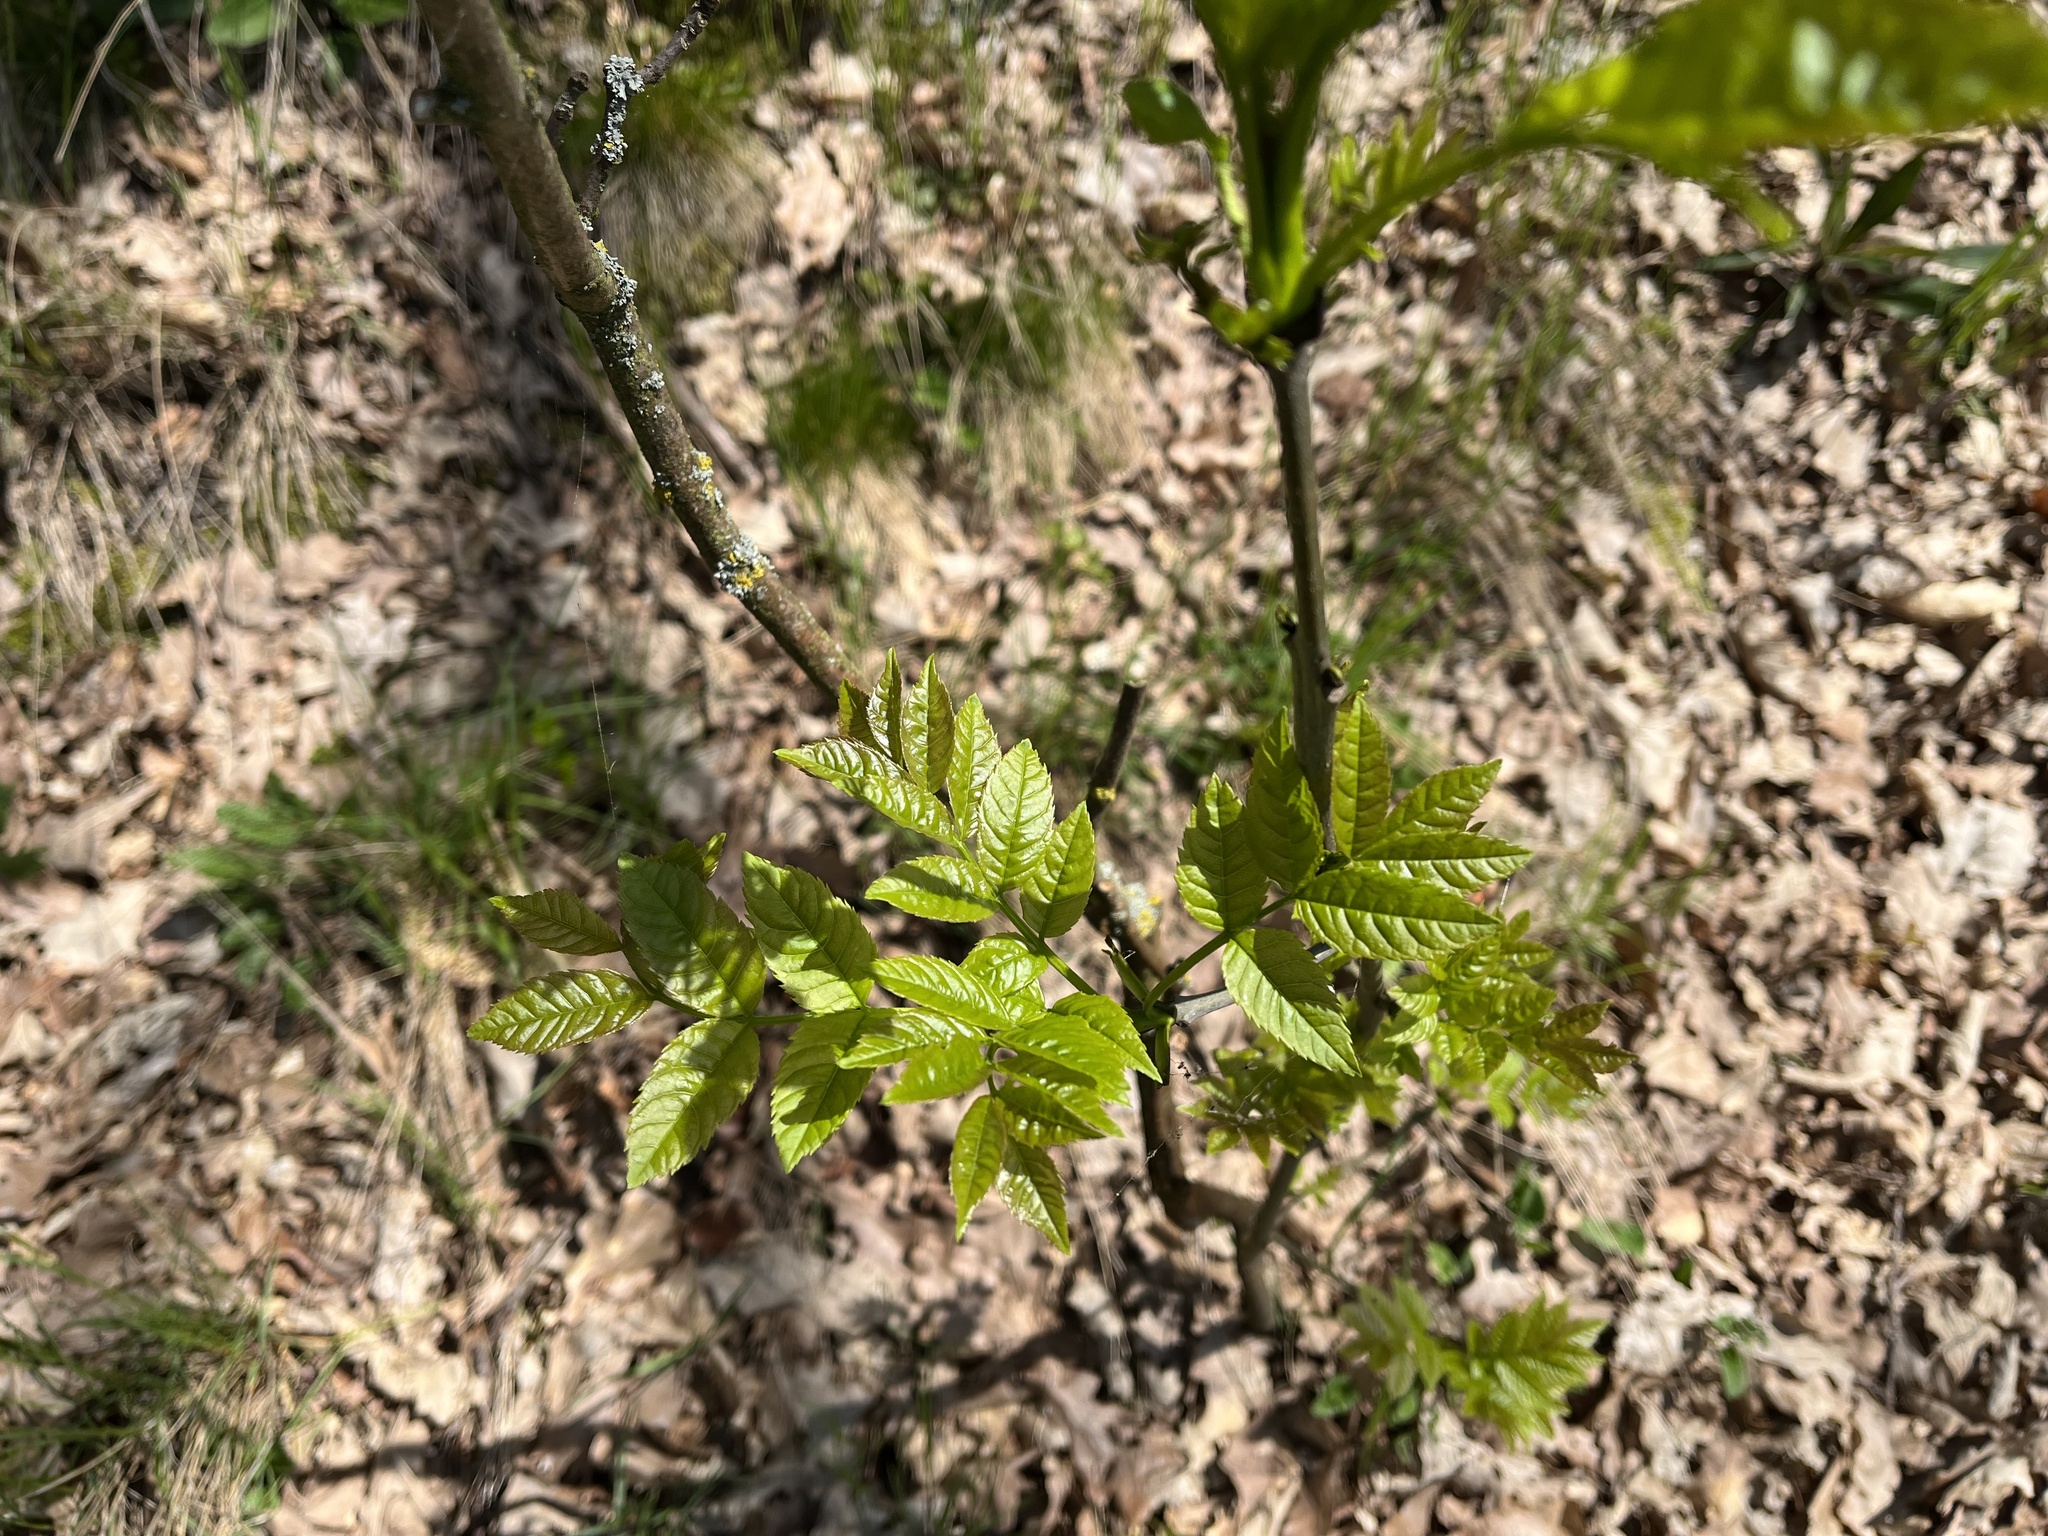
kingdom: Plantae
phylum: Tracheophyta
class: Magnoliopsida
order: Lamiales
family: Oleaceae
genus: Fraxinus
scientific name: Fraxinus excelsior
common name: European ash
